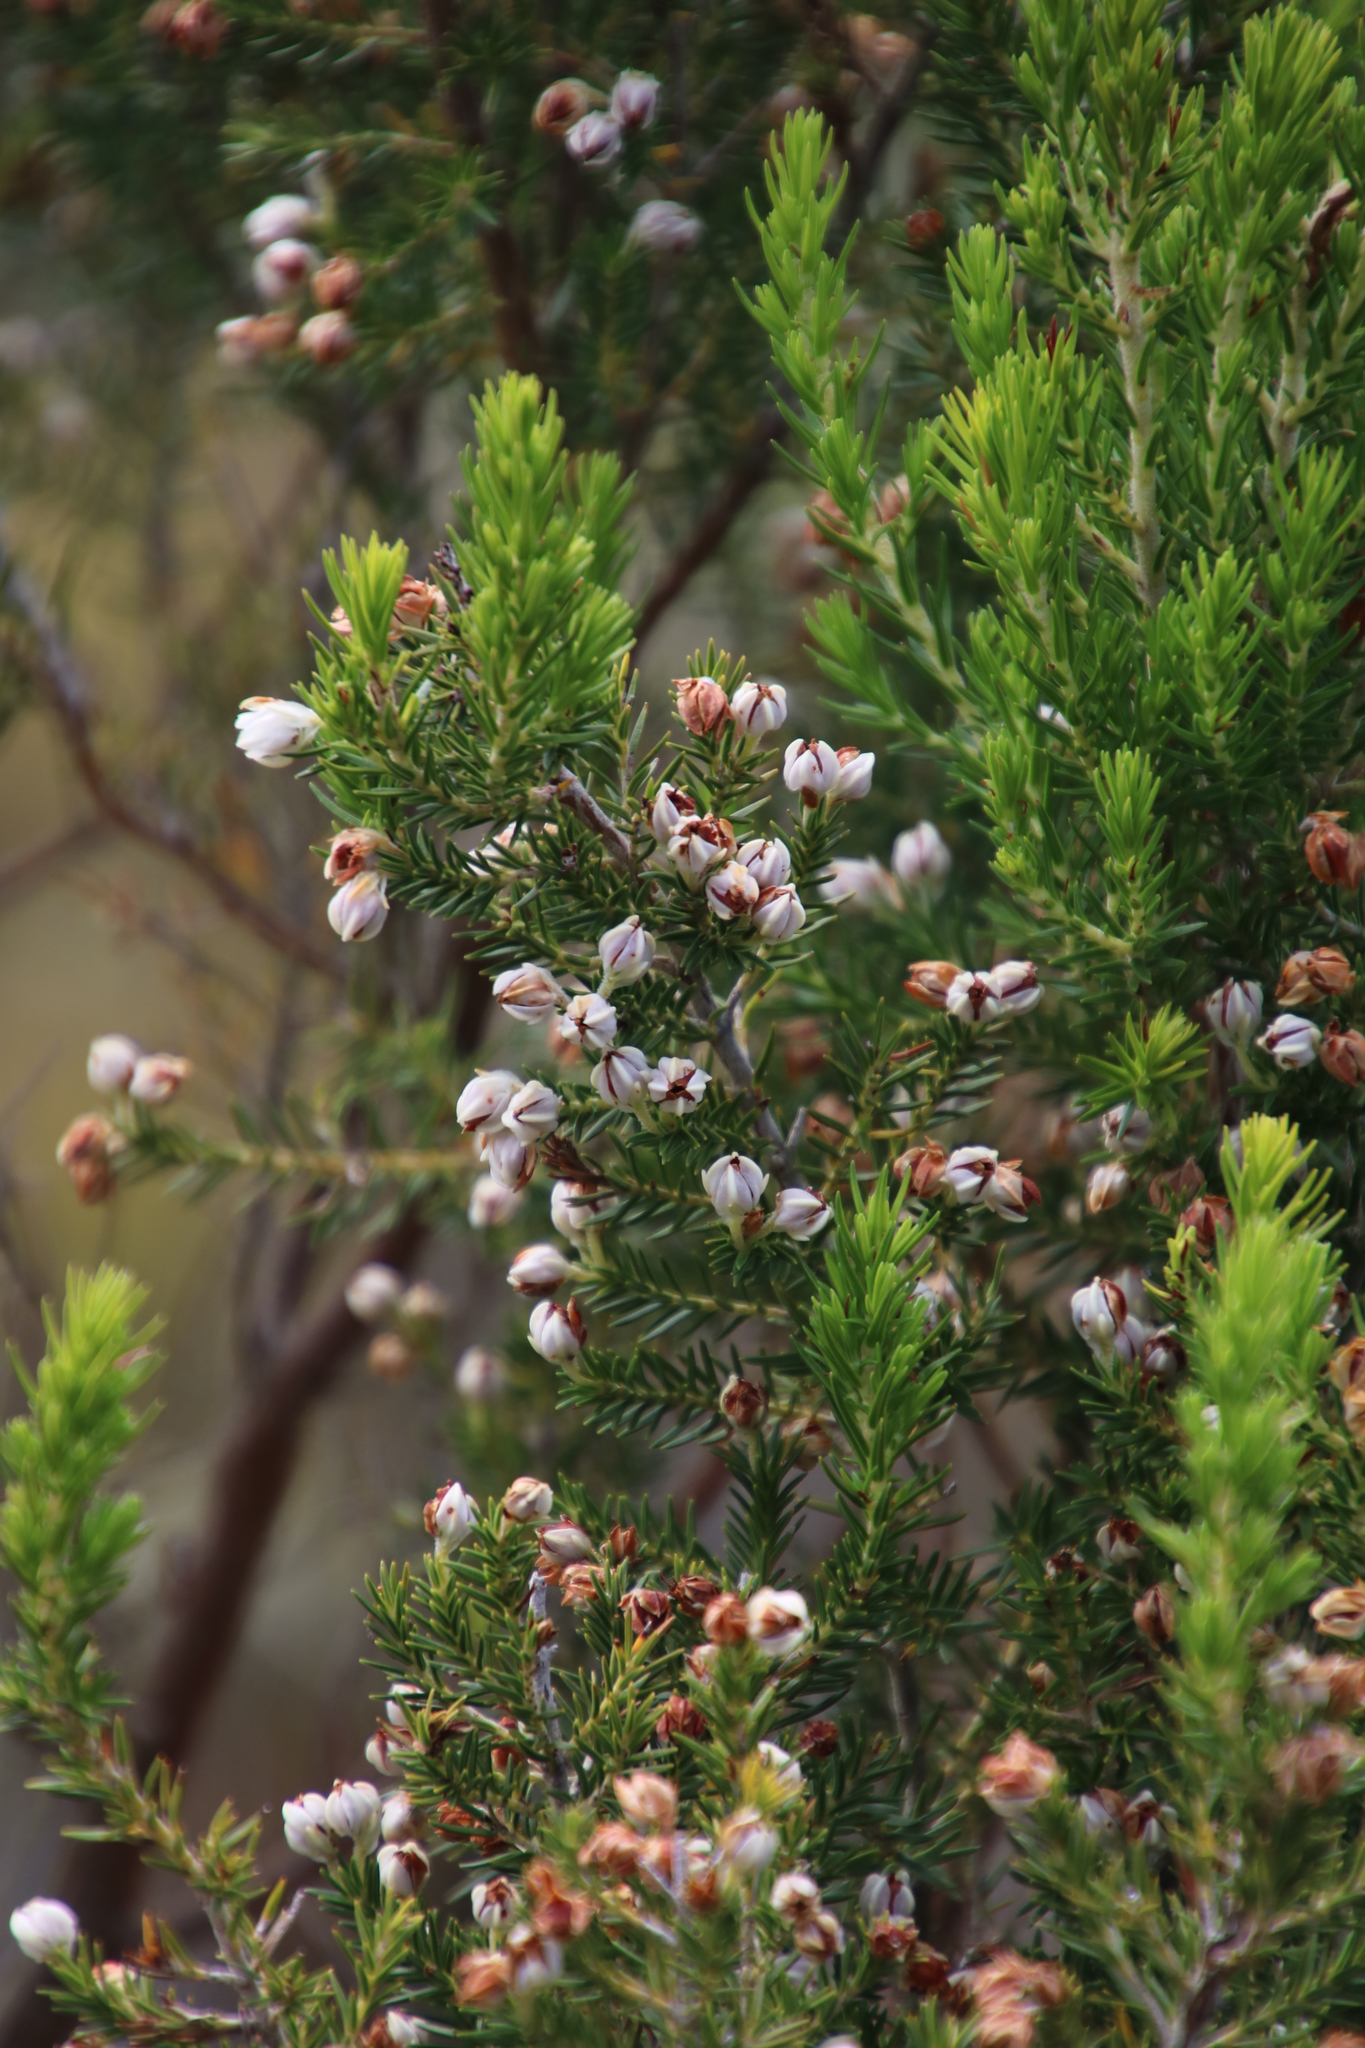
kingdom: Plantae
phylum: Tracheophyta
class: Magnoliopsida
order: Ericales
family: Ericaceae
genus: Erica
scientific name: Erica triflora
